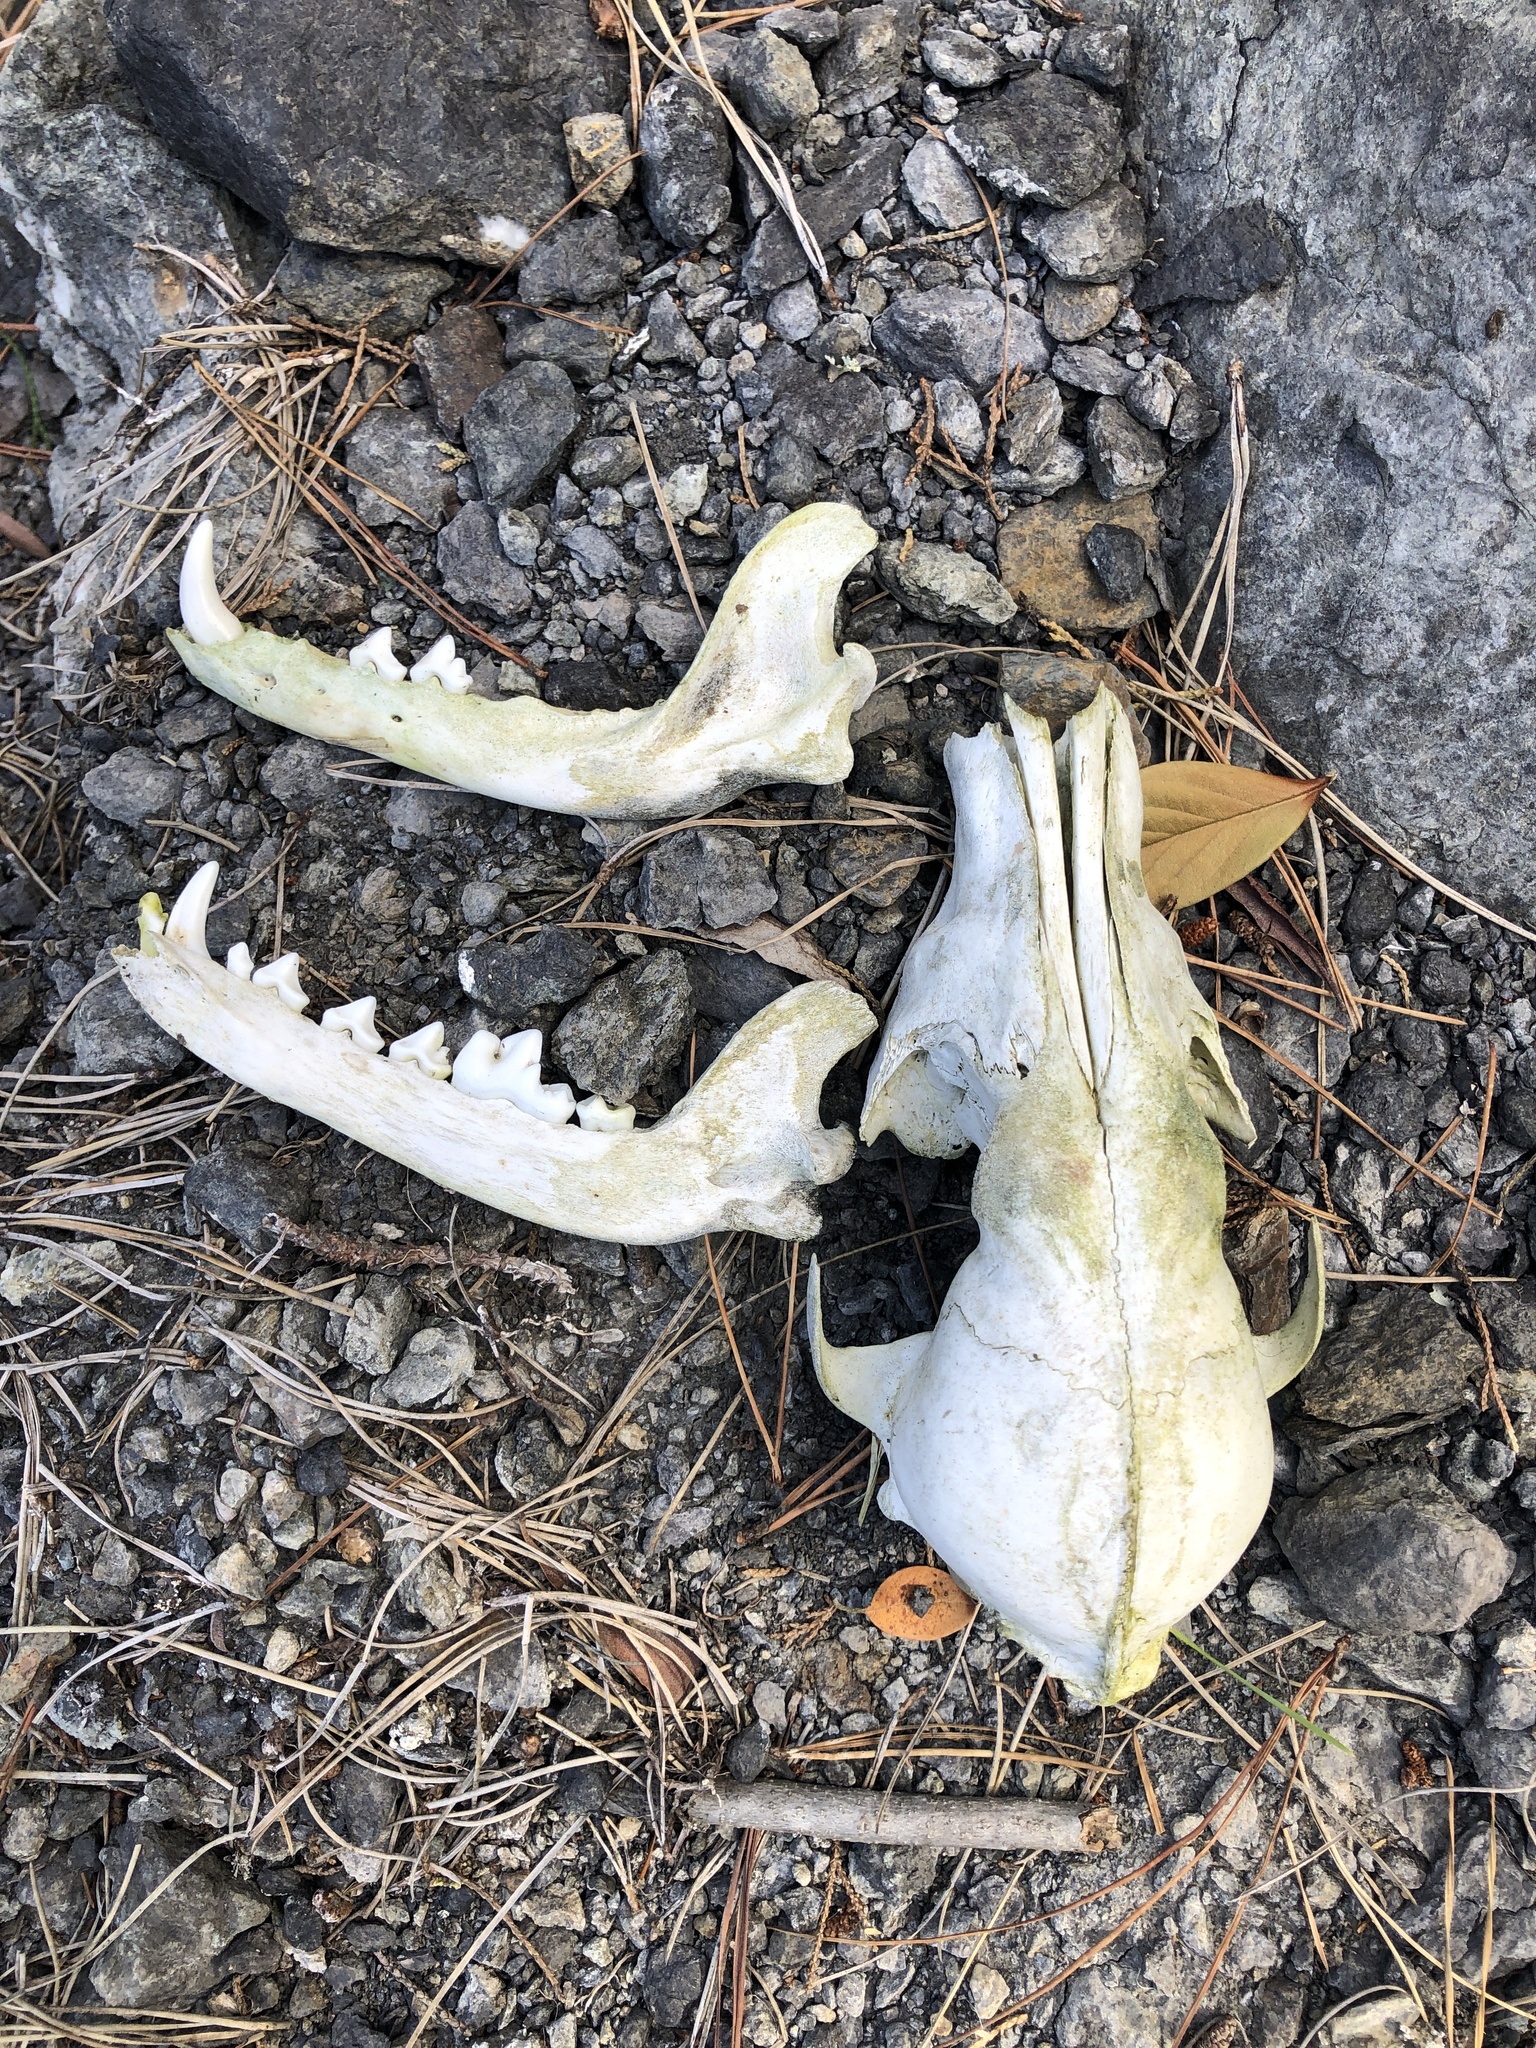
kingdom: Animalia
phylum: Chordata
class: Mammalia
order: Carnivora
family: Canidae
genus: Canis
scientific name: Canis latrans
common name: Coyote
